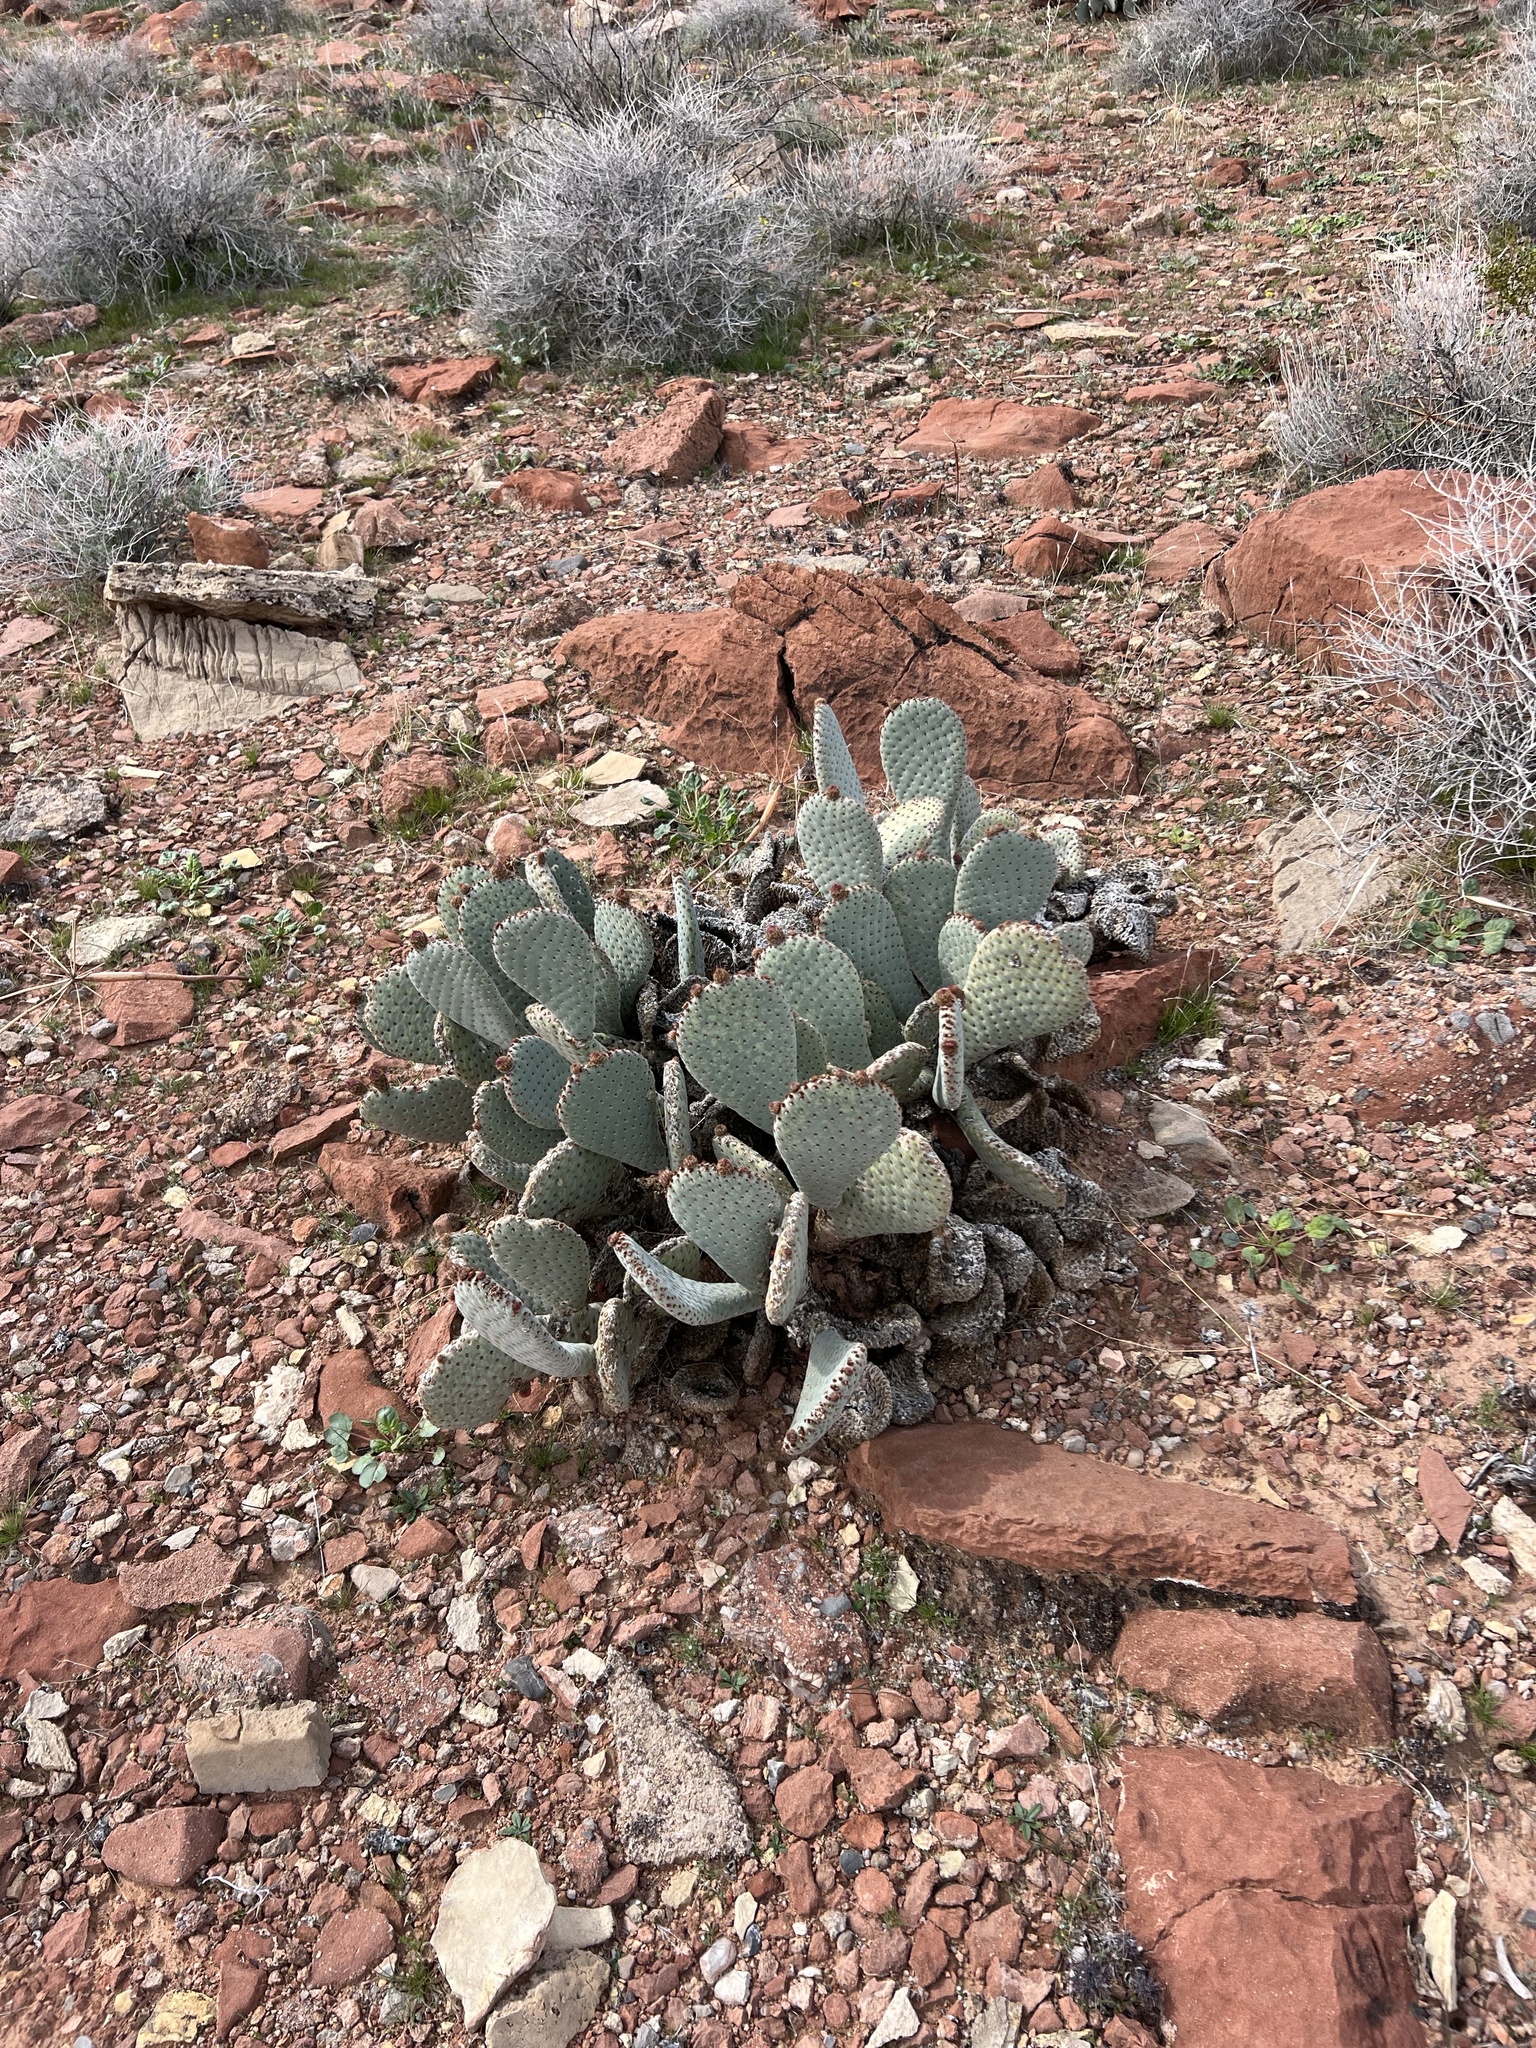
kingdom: Plantae
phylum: Tracheophyta
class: Magnoliopsida
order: Caryophyllales
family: Cactaceae
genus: Opuntia
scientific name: Opuntia basilaris
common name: Beavertail prickly-pear
